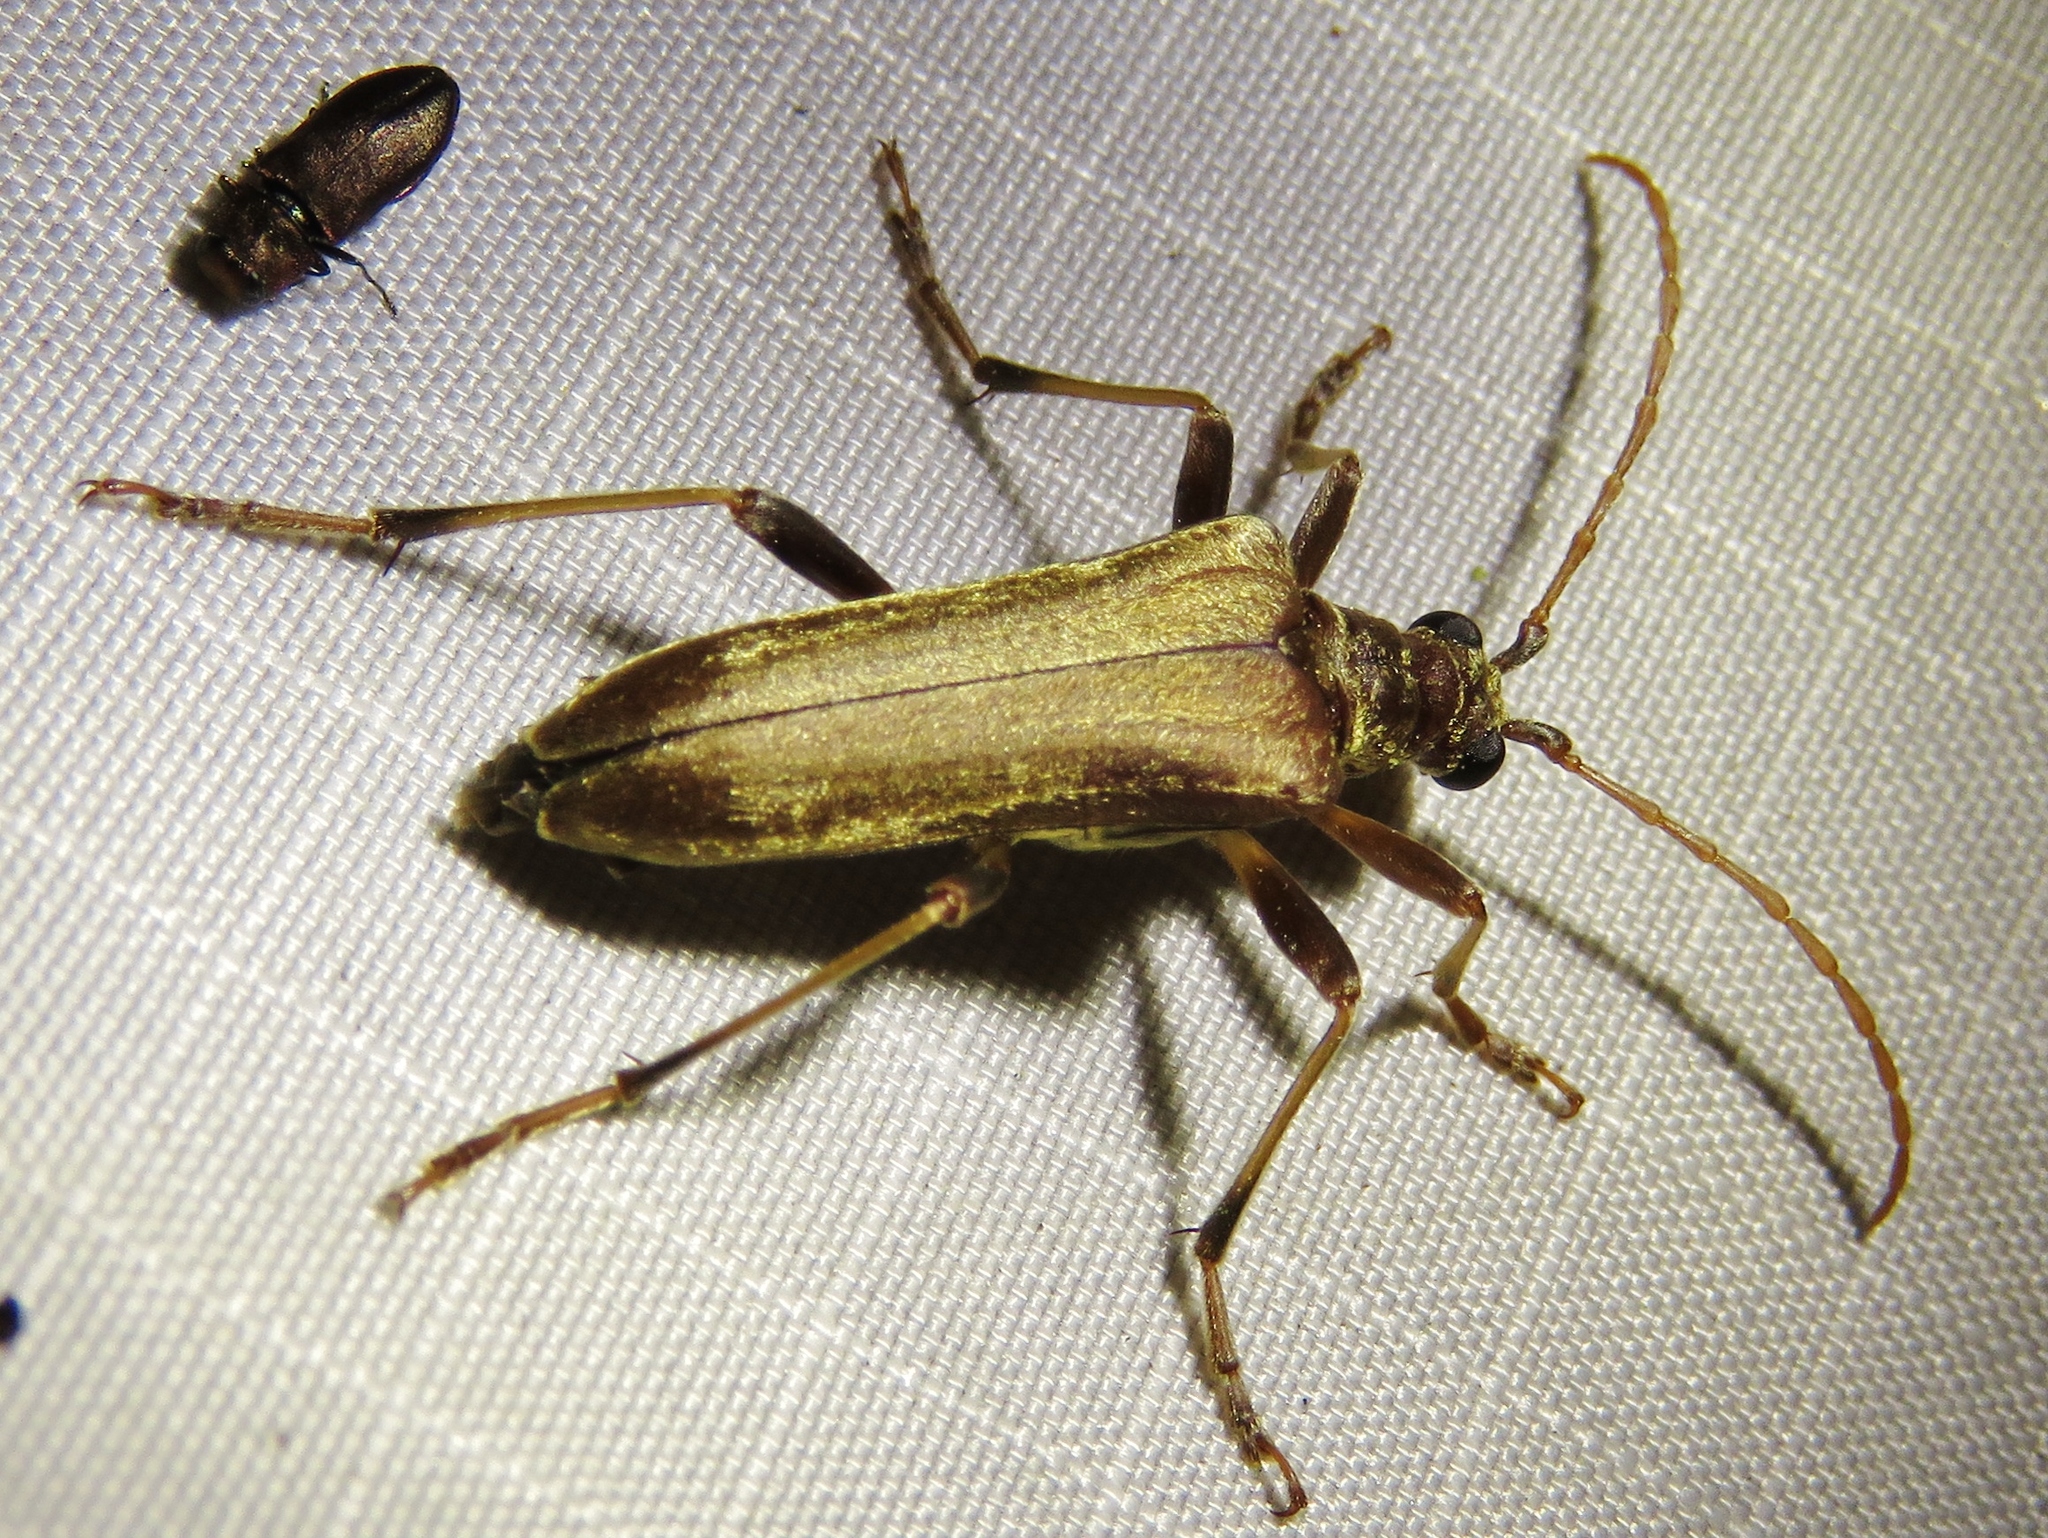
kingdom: Animalia
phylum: Arthropoda
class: Insecta
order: Coleoptera
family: Cerambycidae
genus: Stenocorus
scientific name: Stenocorus cinnamopterus
